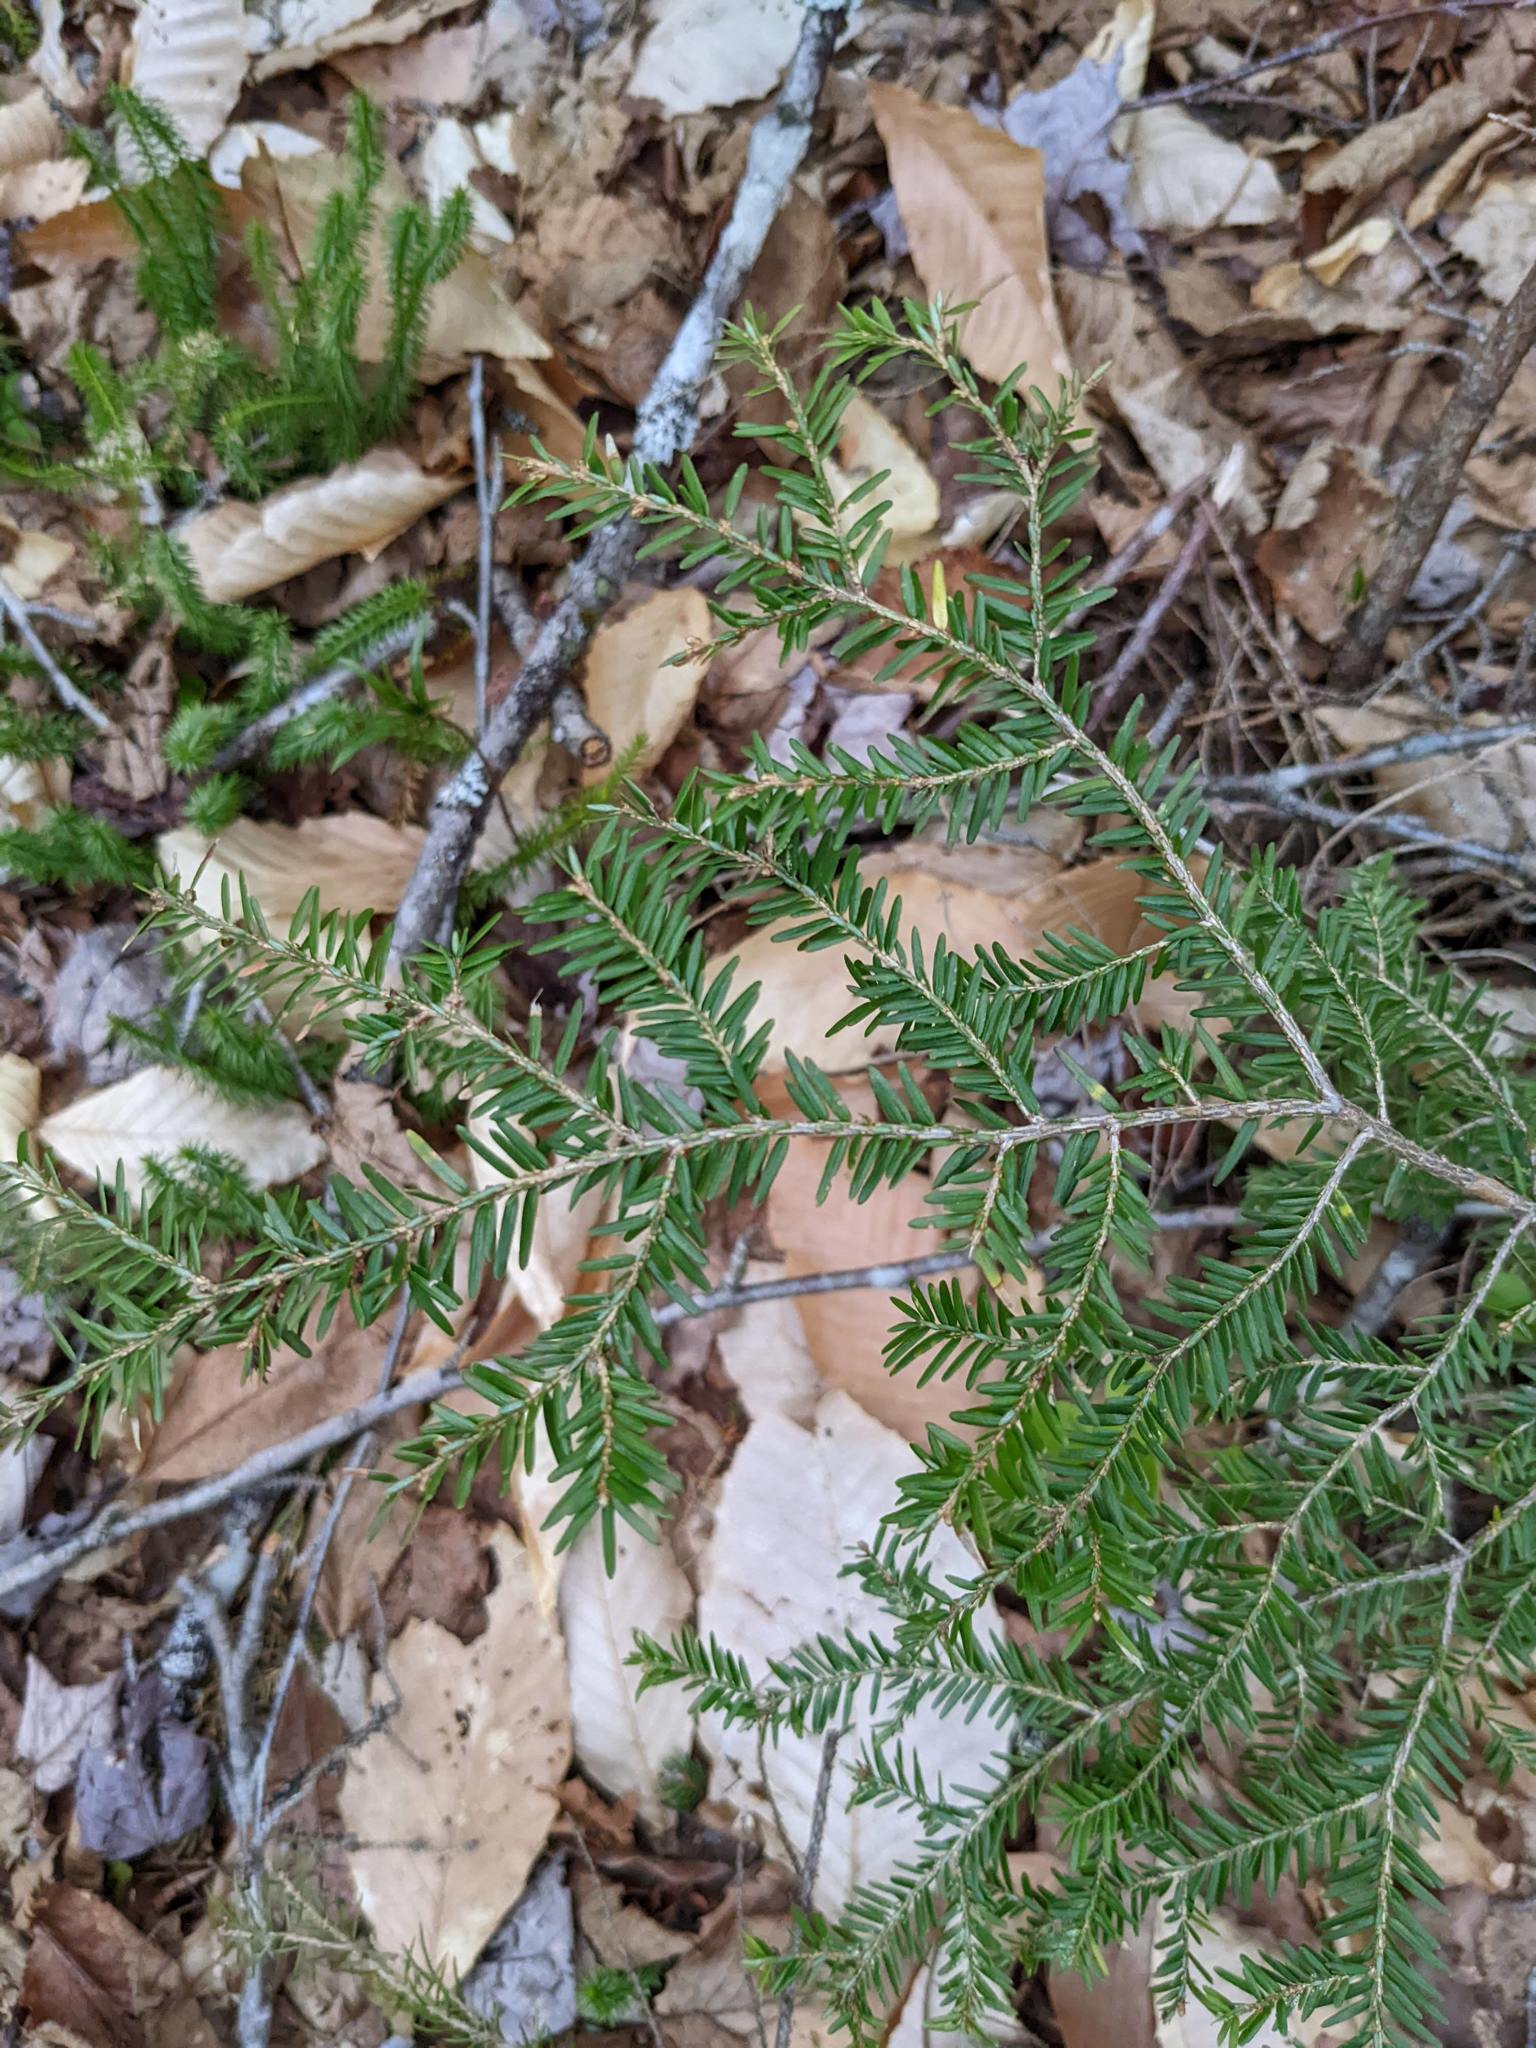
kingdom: Plantae
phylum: Tracheophyta
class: Pinopsida
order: Pinales
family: Pinaceae
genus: Tsuga
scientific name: Tsuga canadensis
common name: Eastern hemlock
